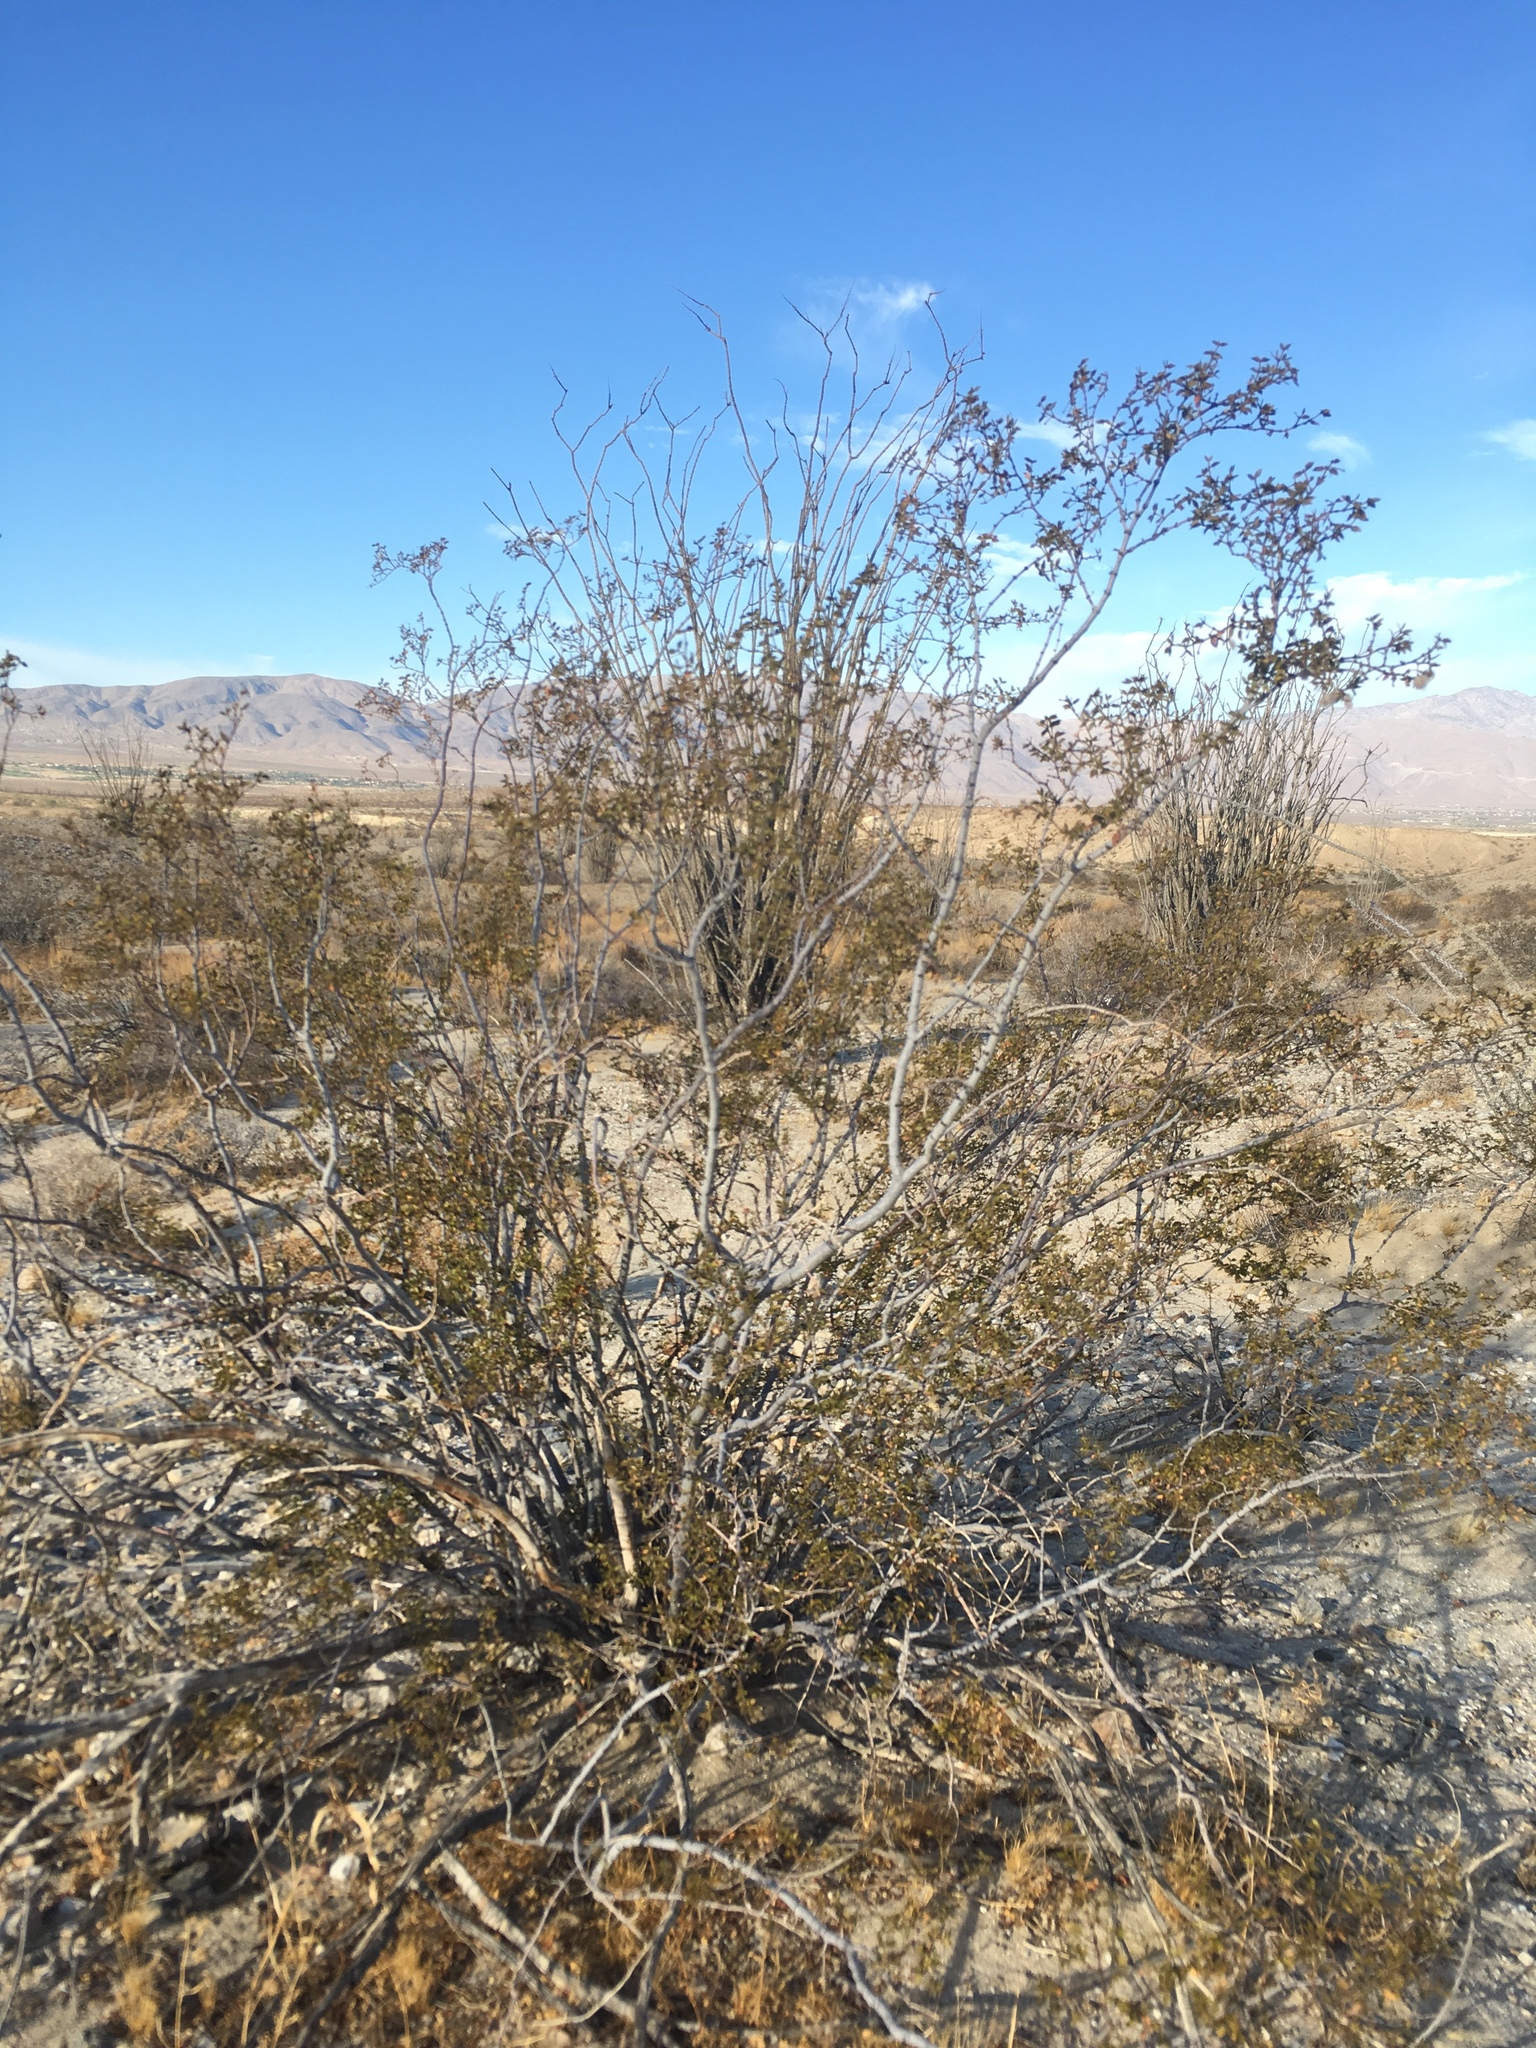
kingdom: Plantae
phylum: Tracheophyta
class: Magnoliopsida
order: Zygophyllales
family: Zygophyllaceae
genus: Larrea
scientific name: Larrea tridentata
